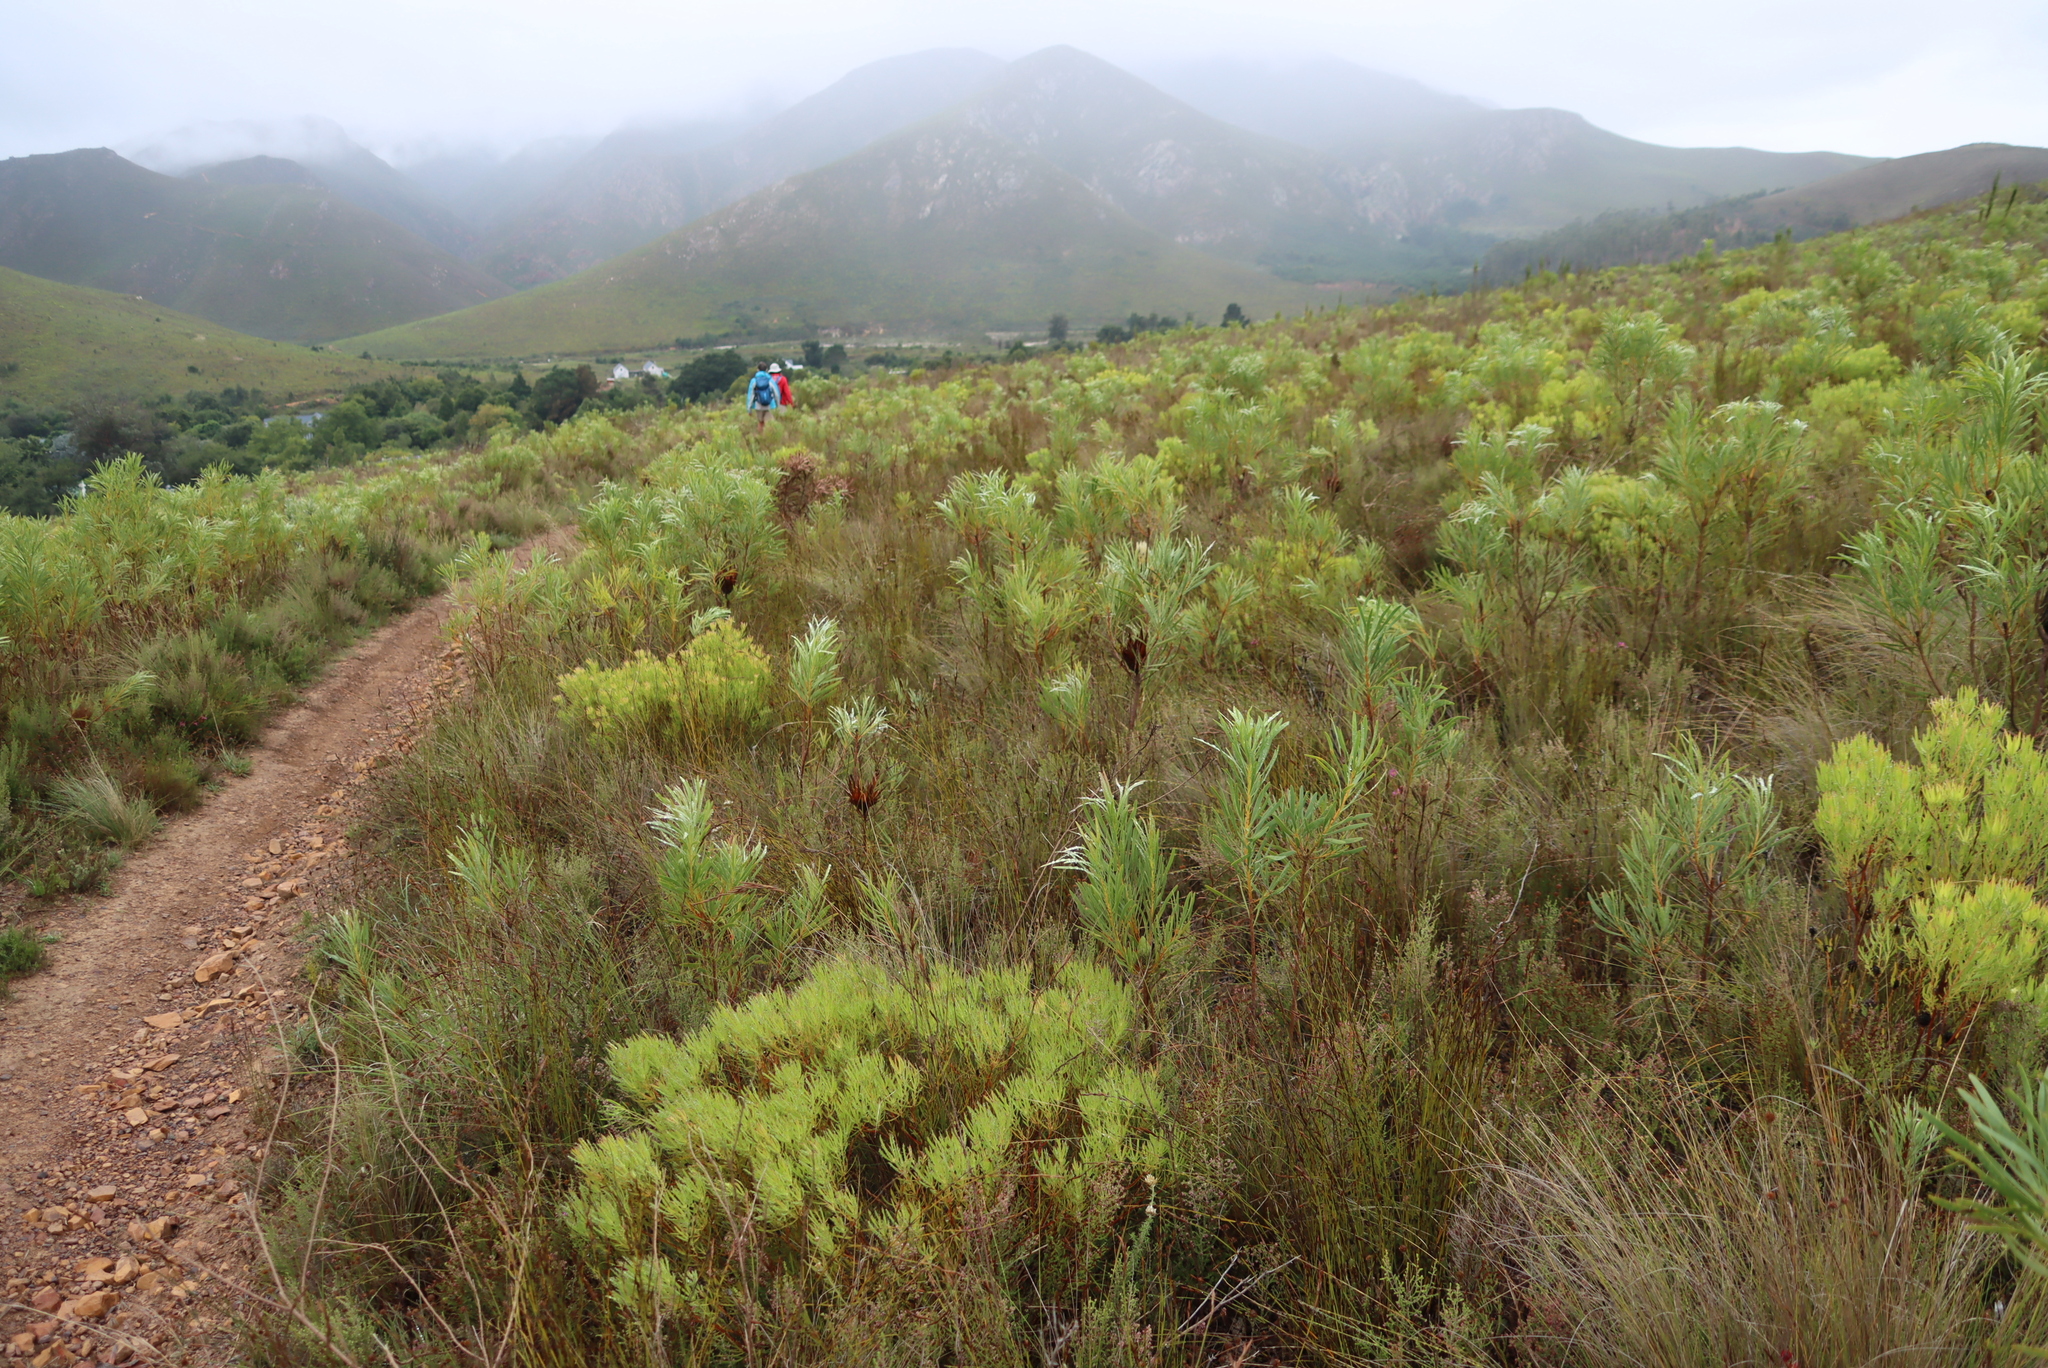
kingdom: Plantae
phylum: Tracheophyta
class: Magnoliopsida
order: Proteales
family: Proteaceae
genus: Leucadendron
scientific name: Leucadendron salignum
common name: Common sunshine conebush
